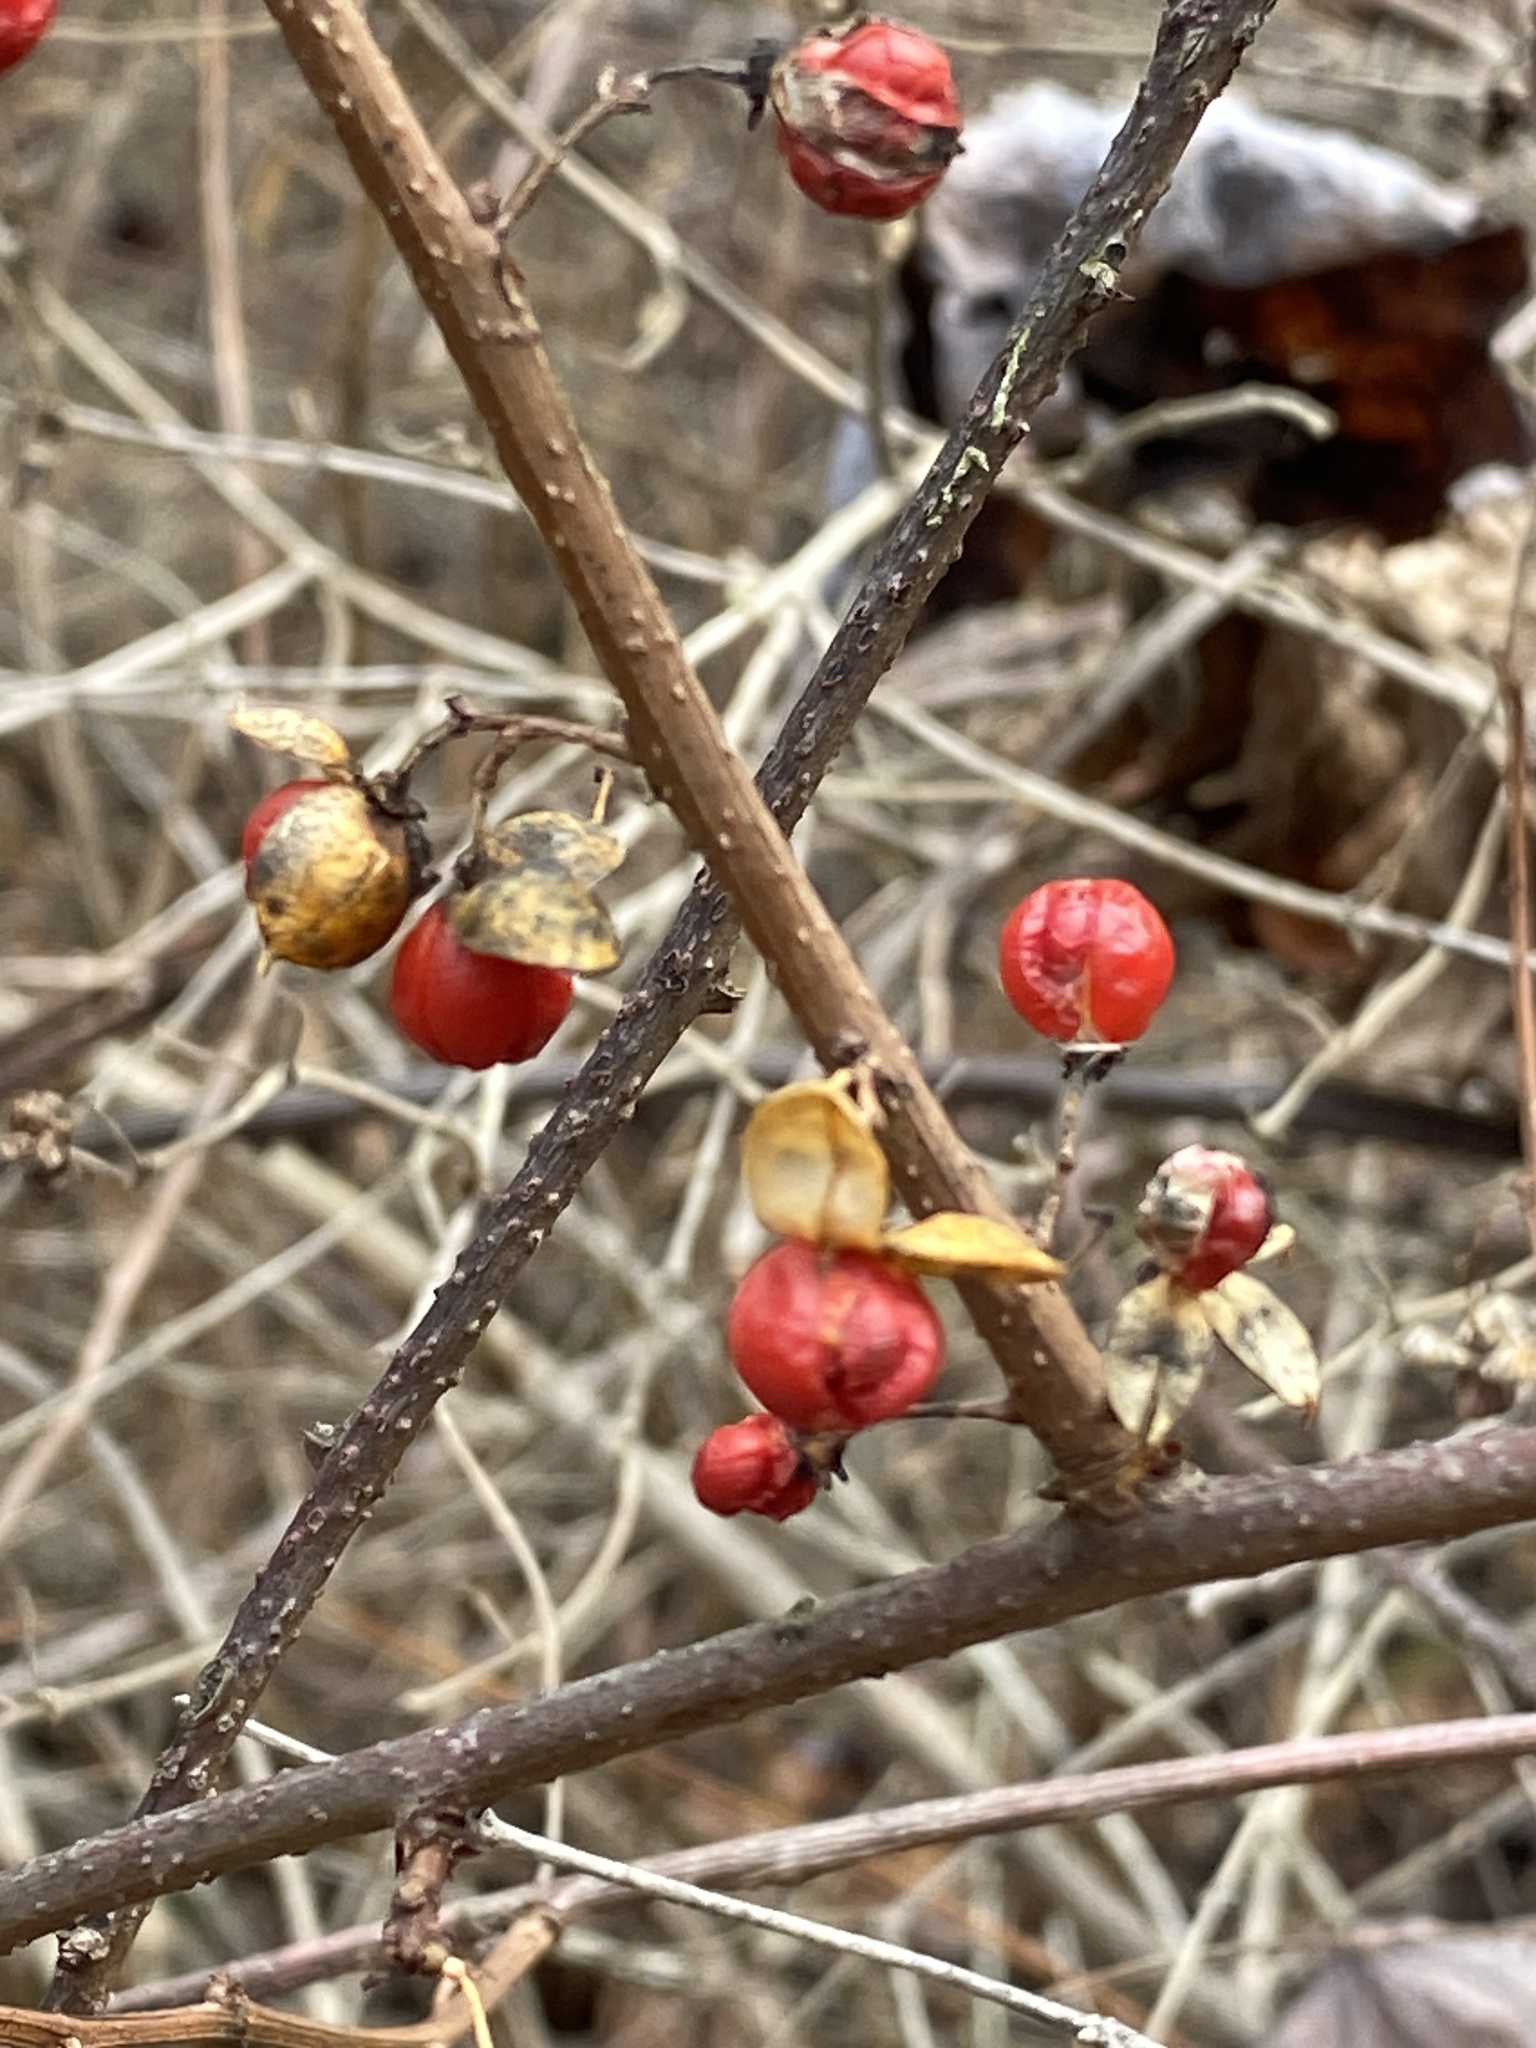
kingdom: Plantae
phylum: Tracheophyta
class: Magnoliopsida
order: Celastrales
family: Celastraceae
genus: Celastrus
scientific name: Celastrus orbiculatus
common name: Oriental bittersweet
